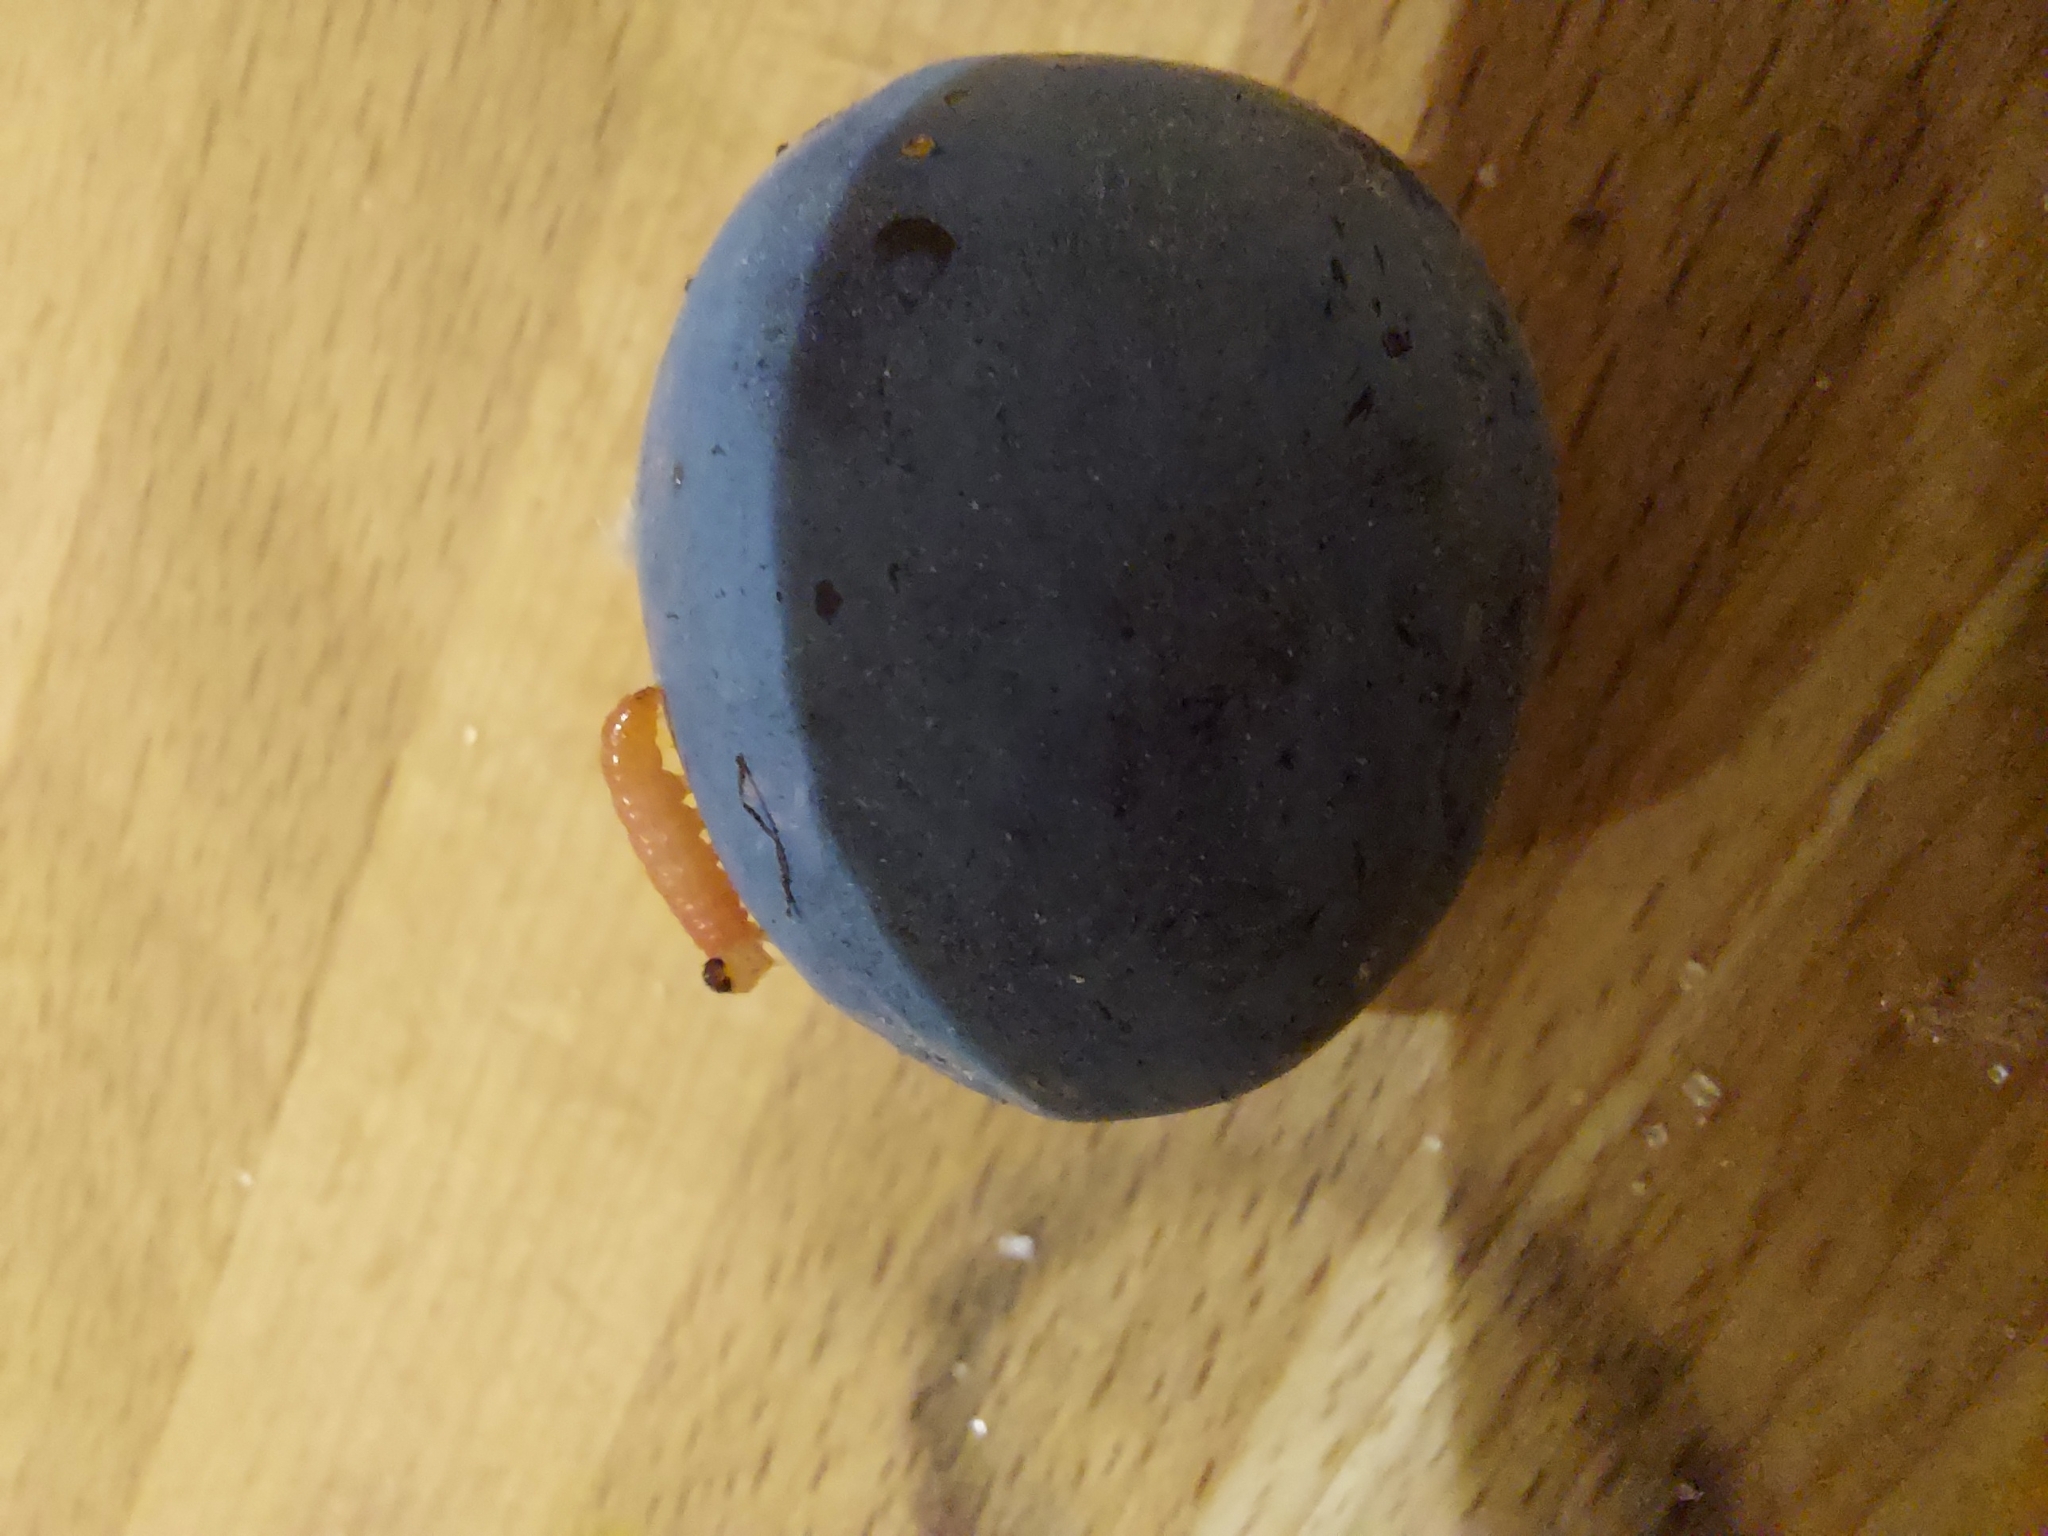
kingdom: Animalia
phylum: Arthropoda
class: Insecta
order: Lepidoptera
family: Noctuidae
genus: Aspila
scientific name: Aspila
